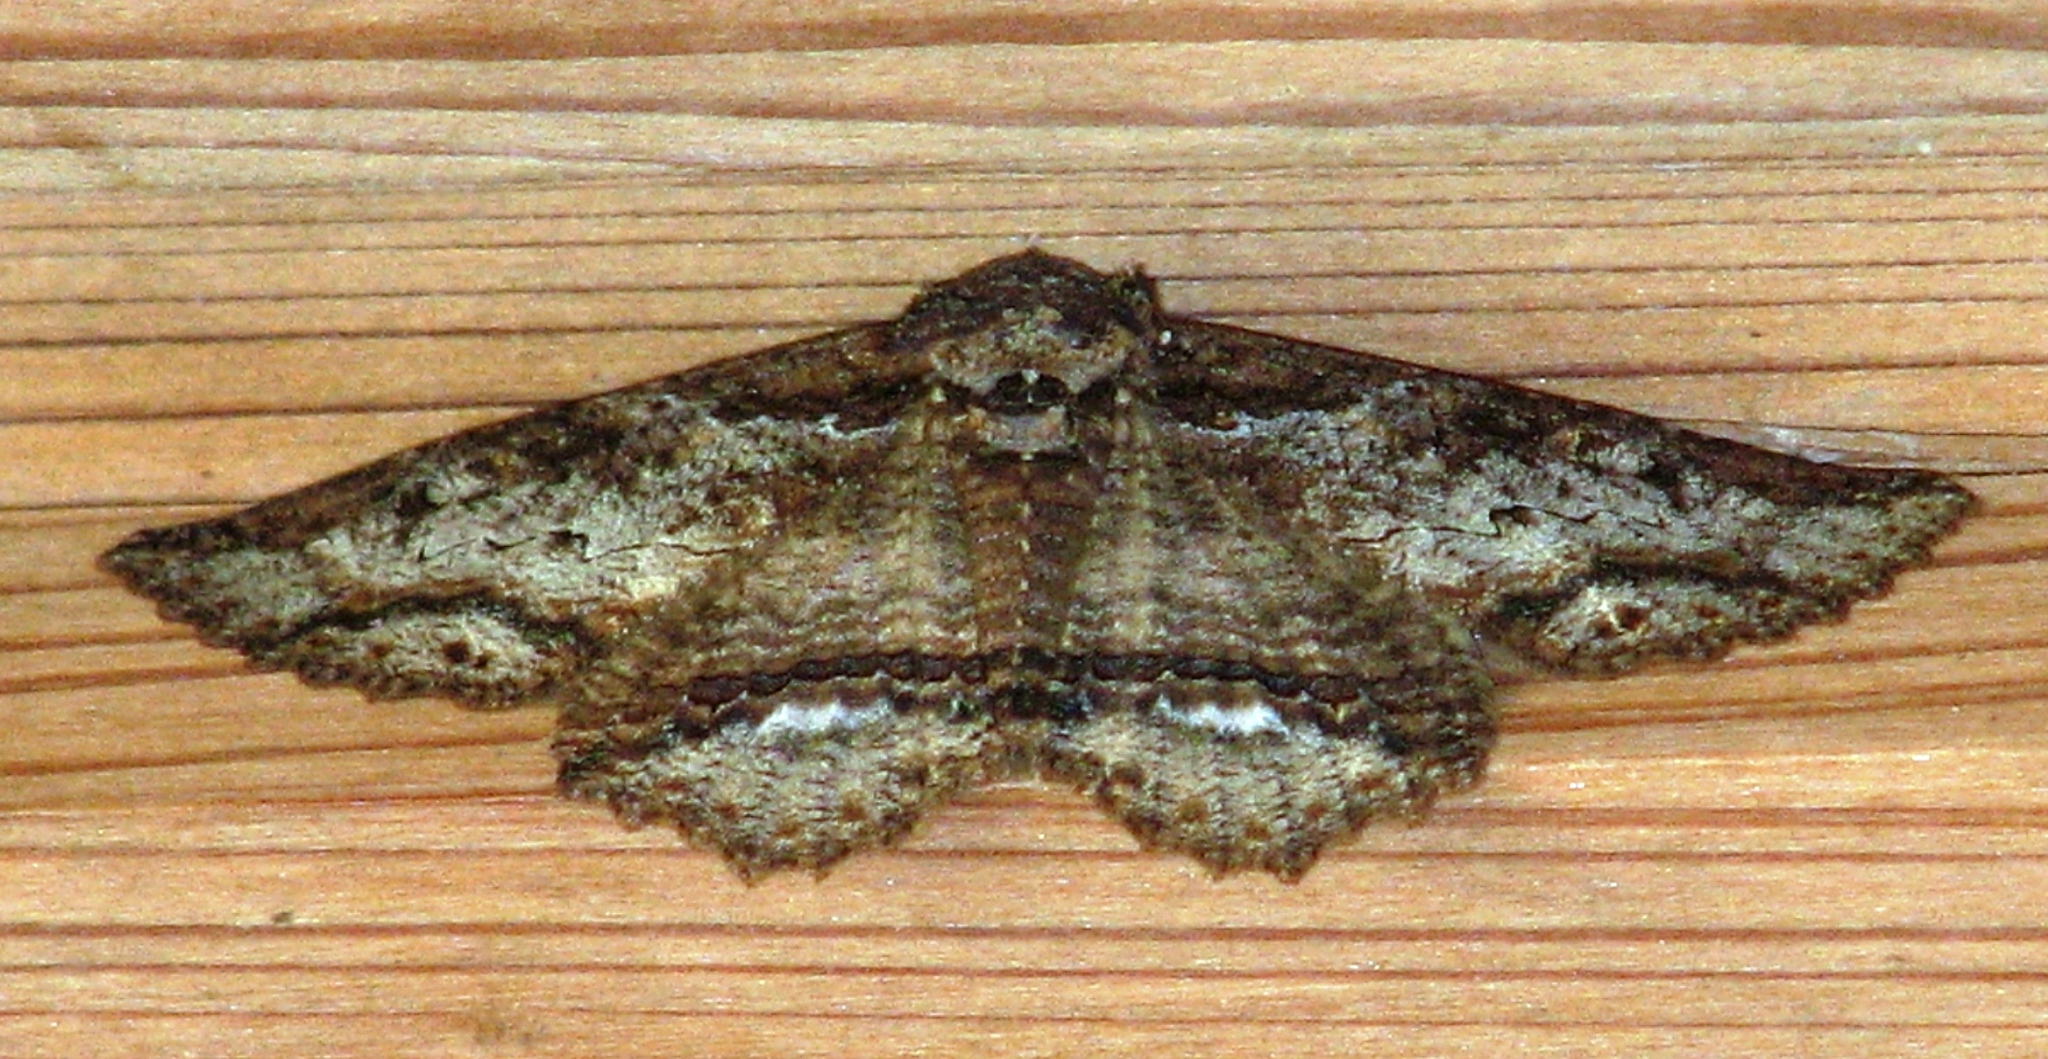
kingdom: Animalia
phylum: Arthropoda
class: Insecta
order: Lepidoptera
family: Erebidae
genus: Zale
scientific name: Zale strigimacula
